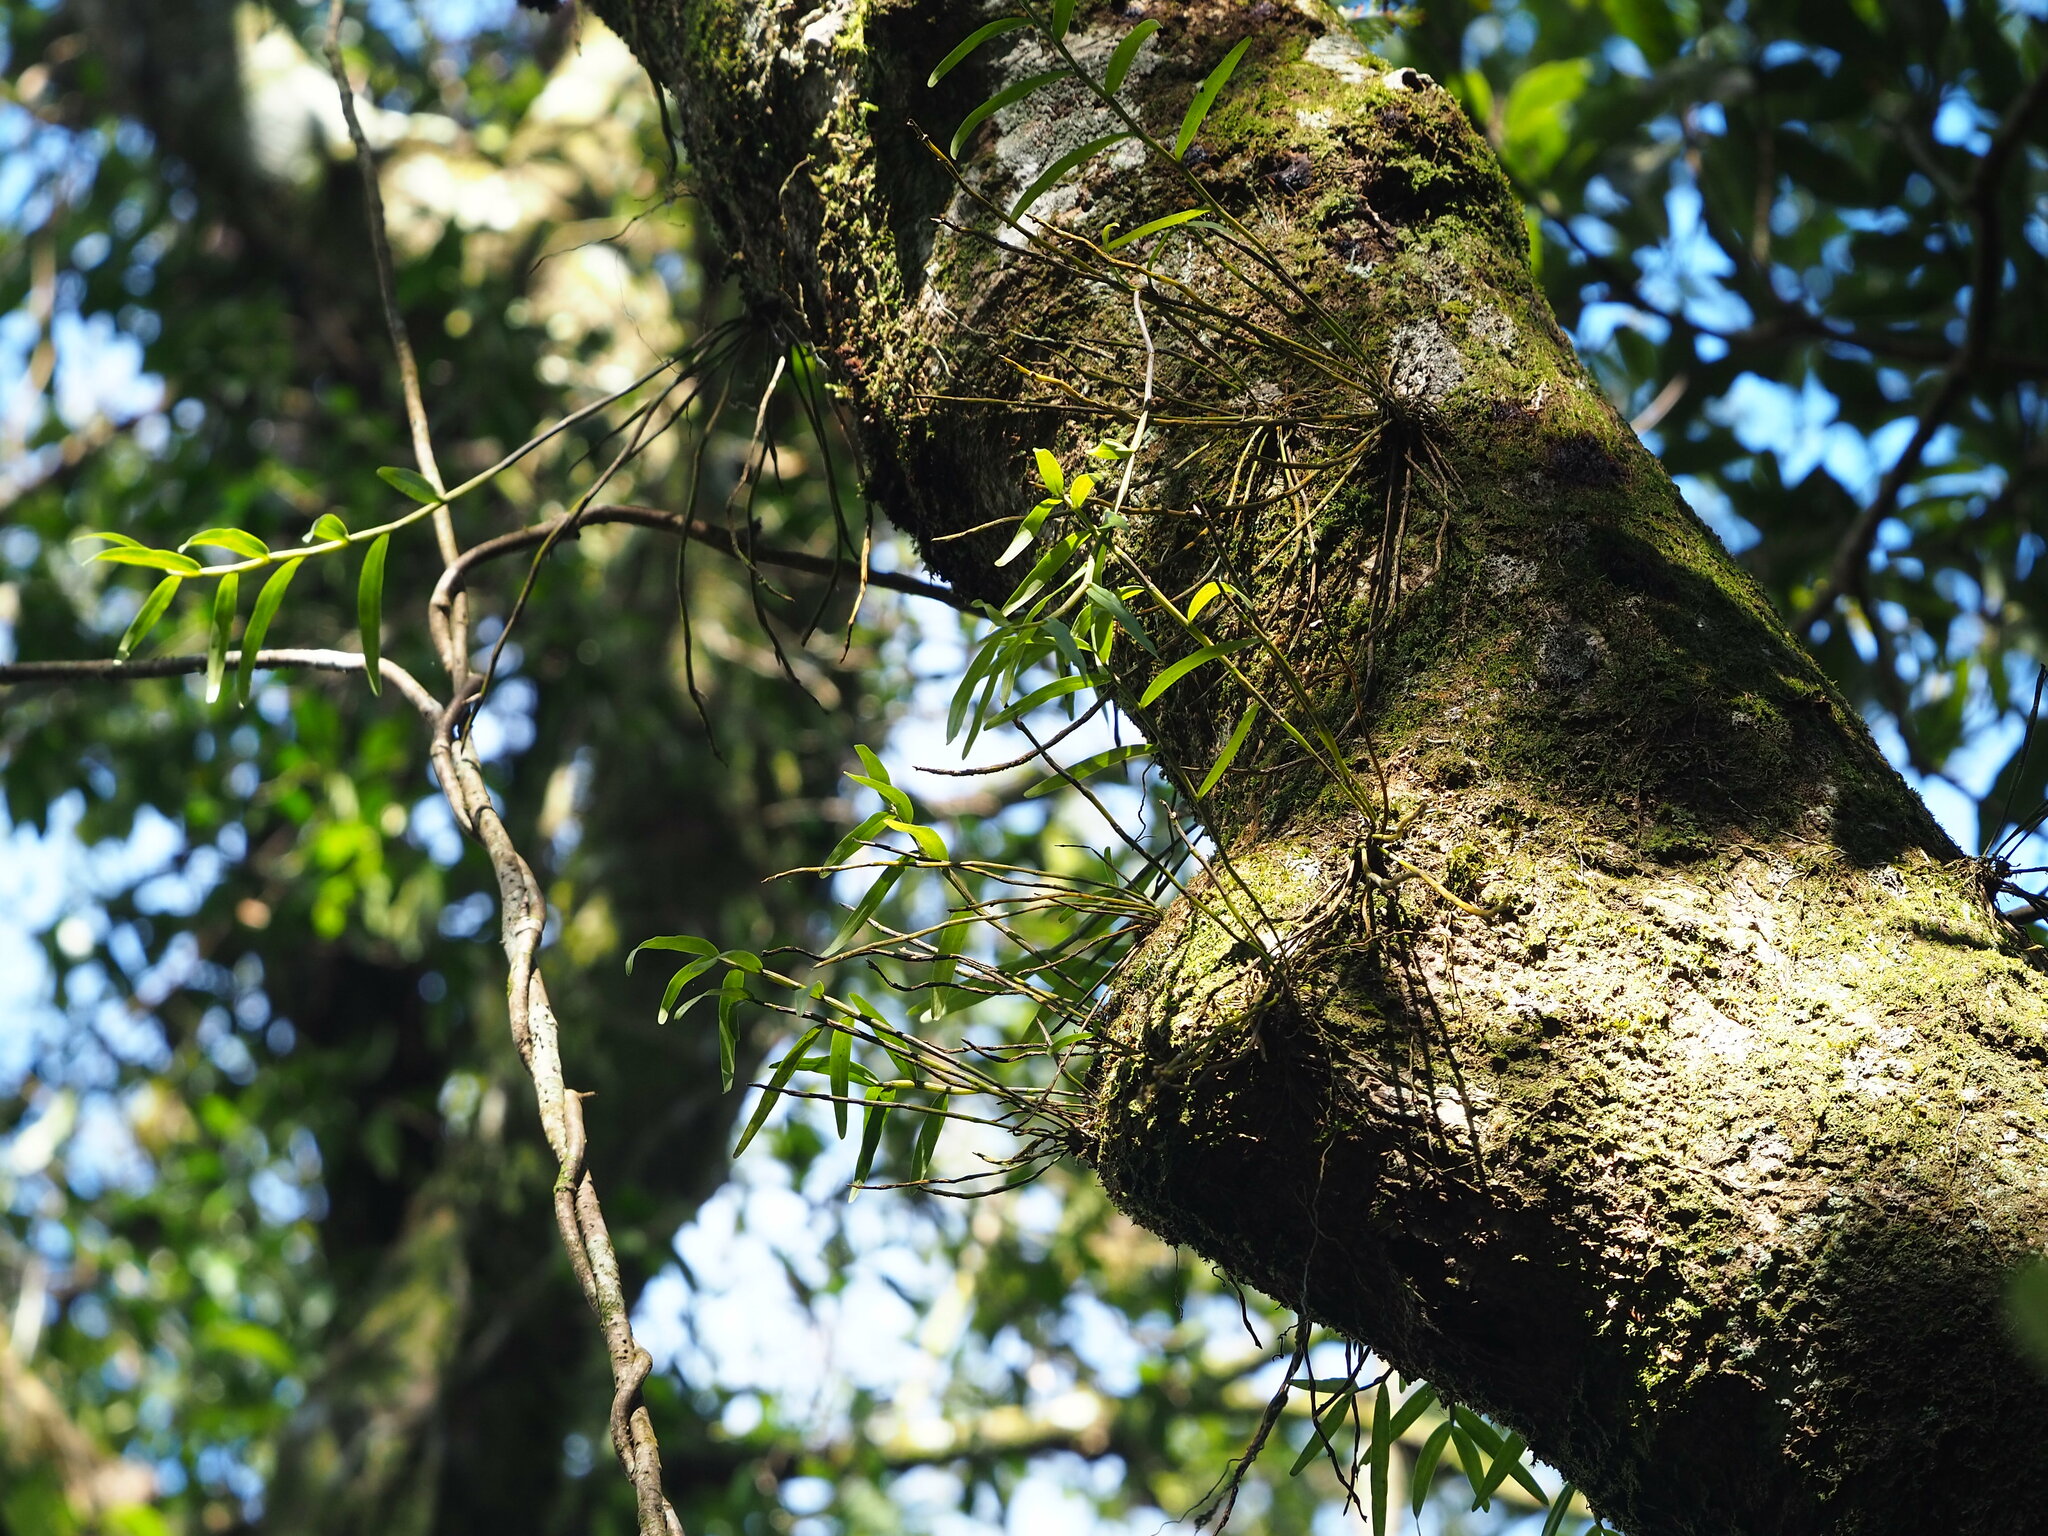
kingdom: Plantae
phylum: Tracheophyta
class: Liliopsida
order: Asparagales
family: Orchidaceae
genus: Dendrobium
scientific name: Dendrobium moniliforme
